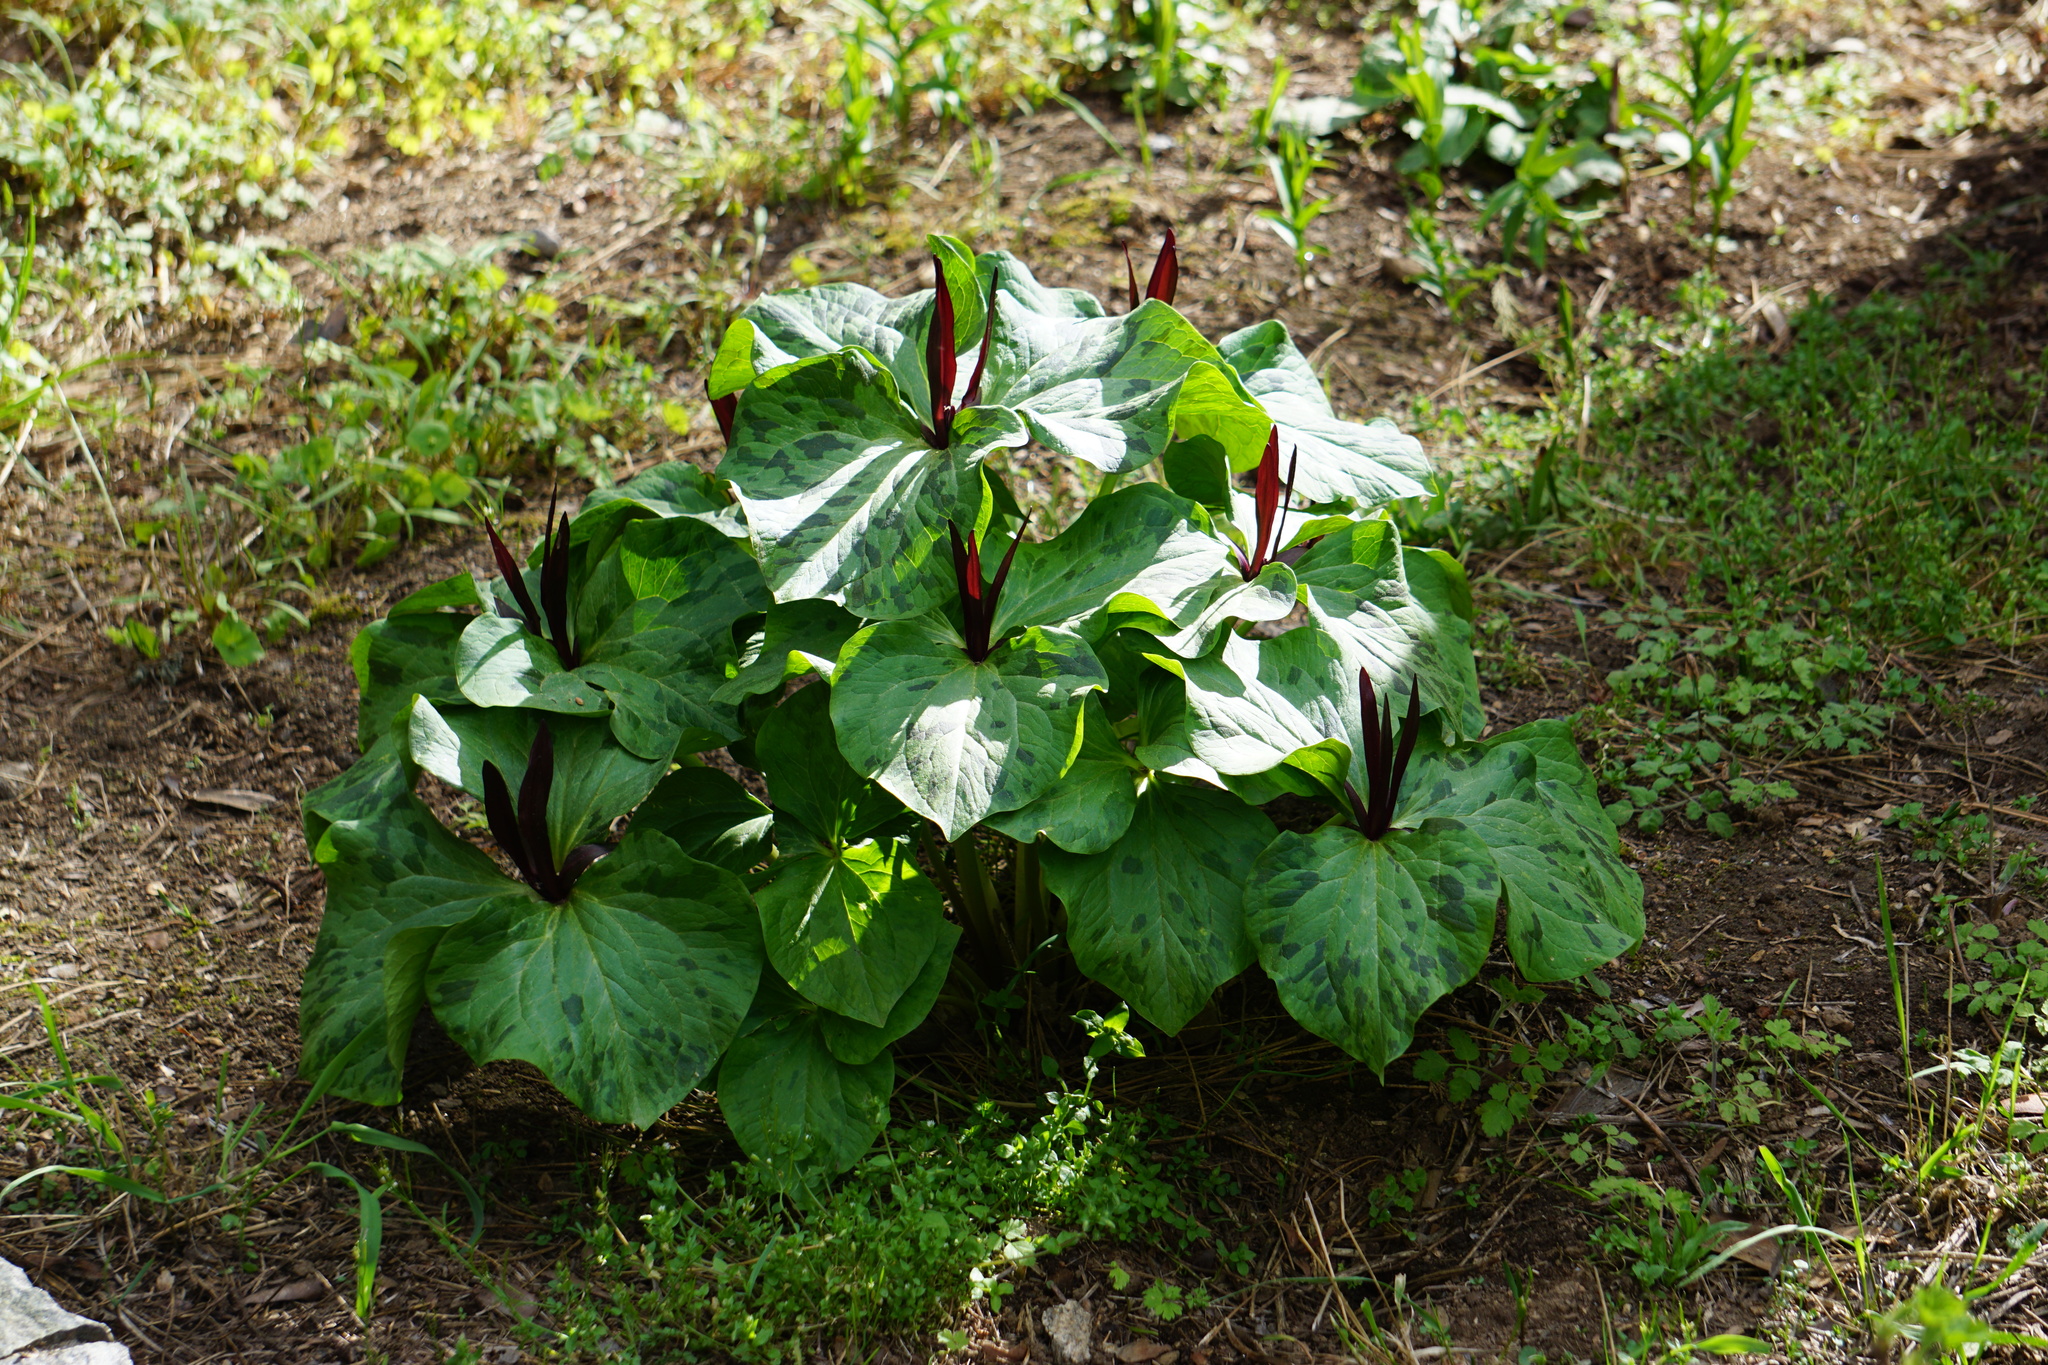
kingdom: Plantae
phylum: Tracheophyta
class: Liliopsida
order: Liliales
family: Melanthiaceae
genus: Trillium
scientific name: Trillium angustipetalum
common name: Narrow-petaled trillium
